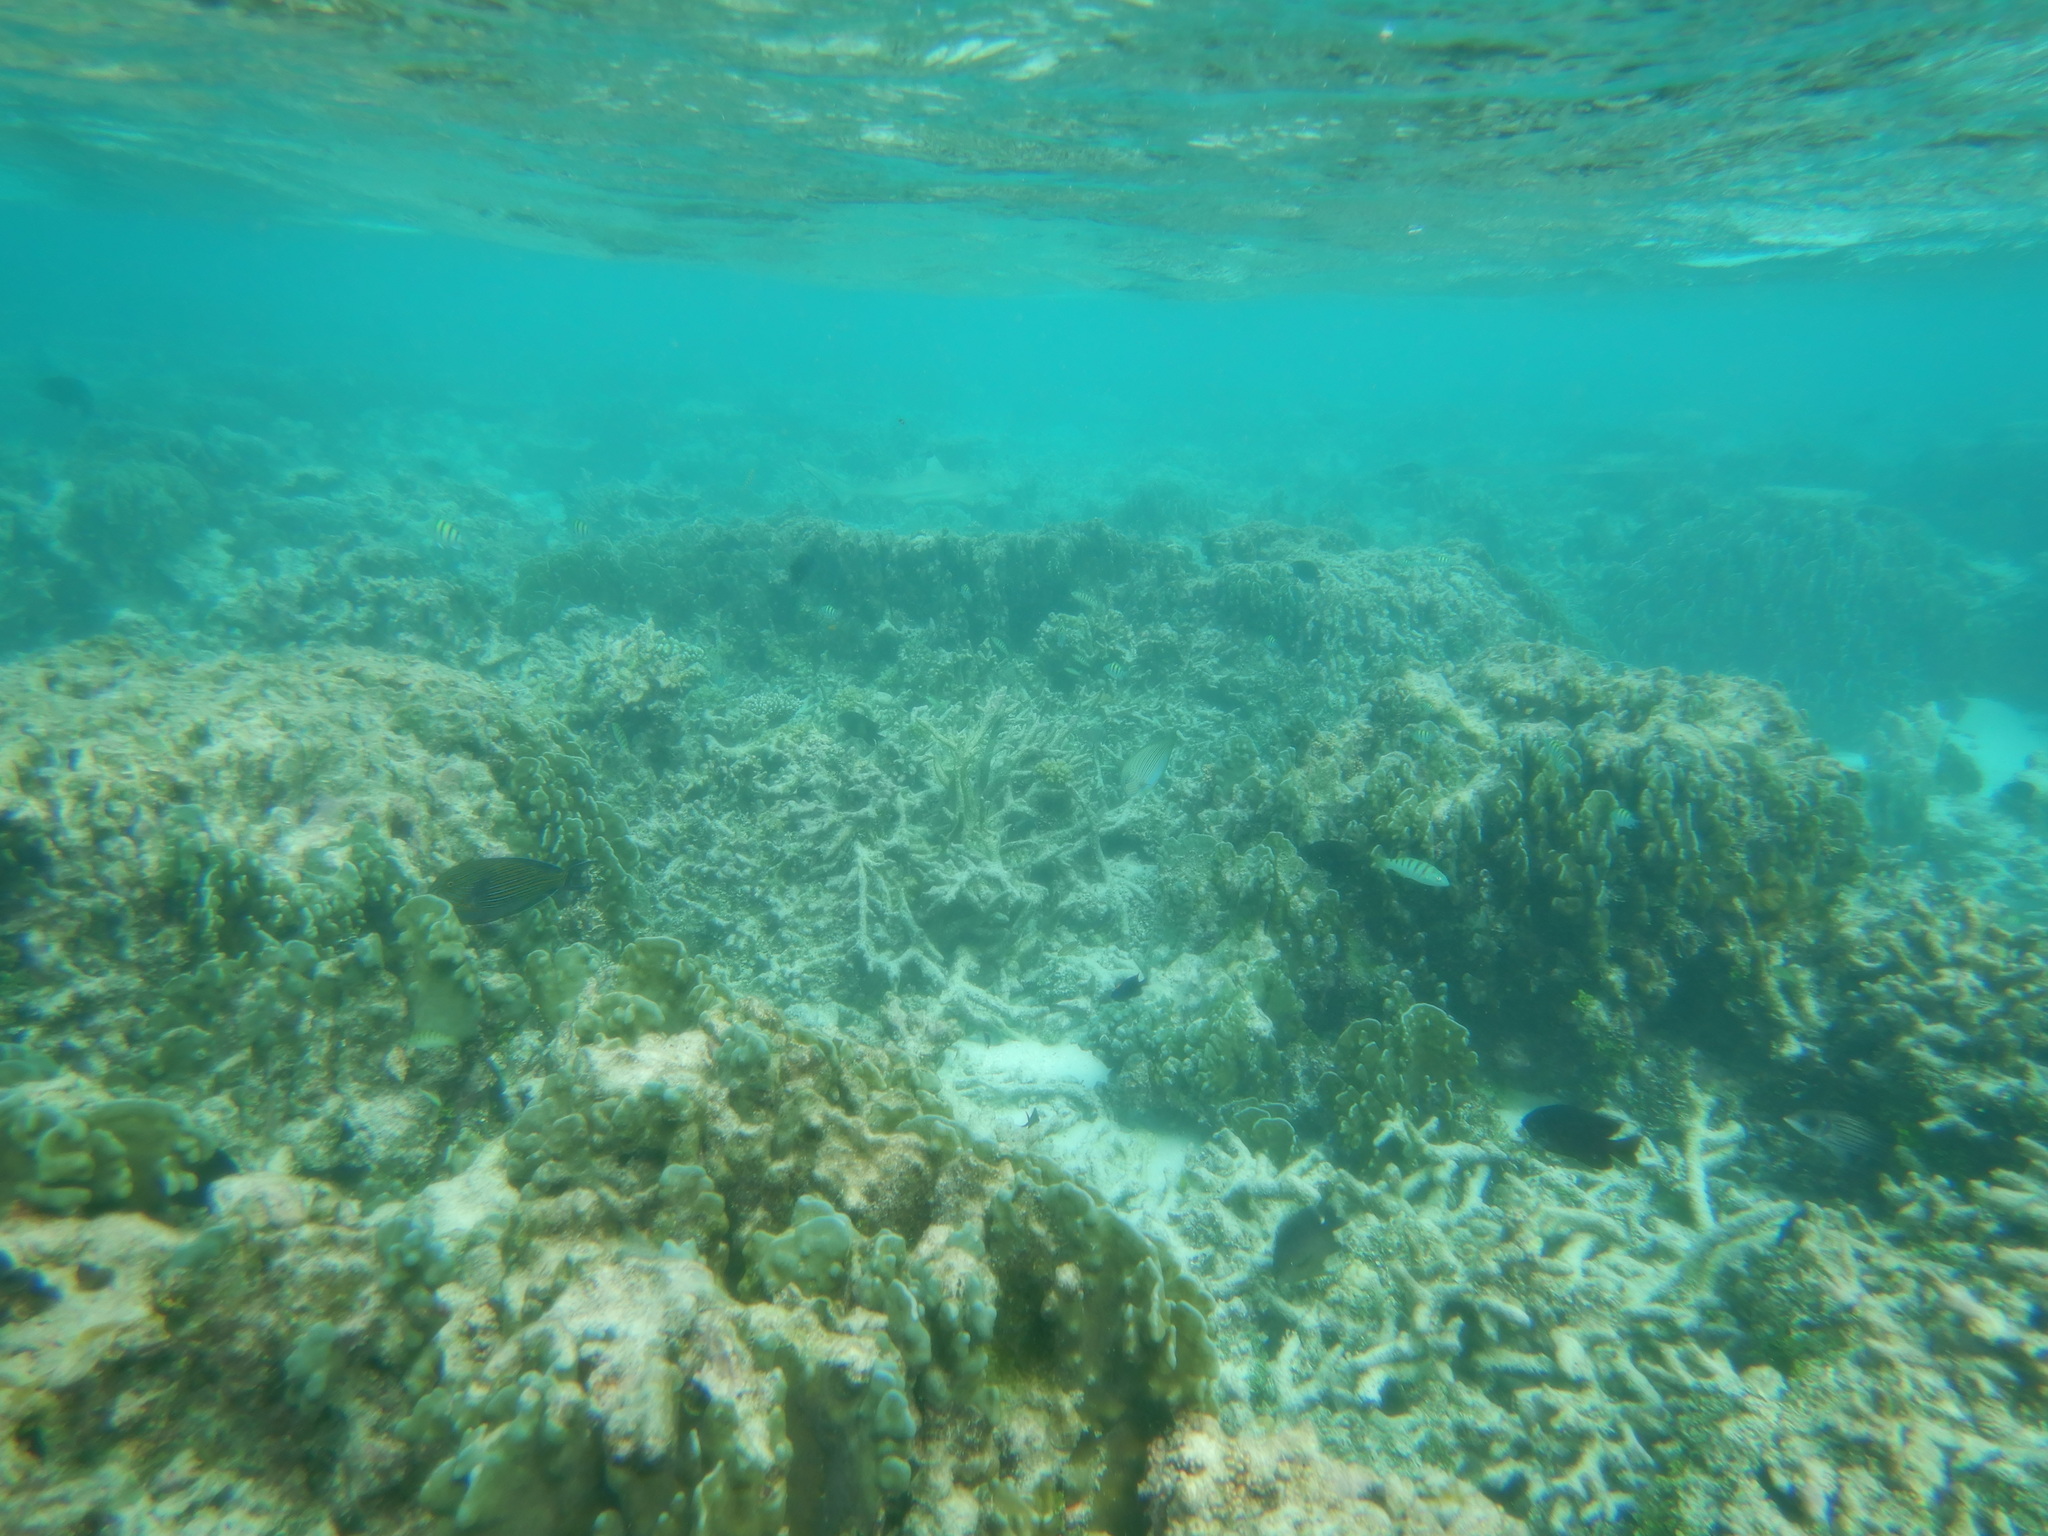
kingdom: Animalia
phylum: Chordata
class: Elasmobranchii
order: Carcharhiniformes
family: Carcharhinidae
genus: Carcharhinus
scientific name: Carcharhinus melanopterus
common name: Blacktip reef shark
